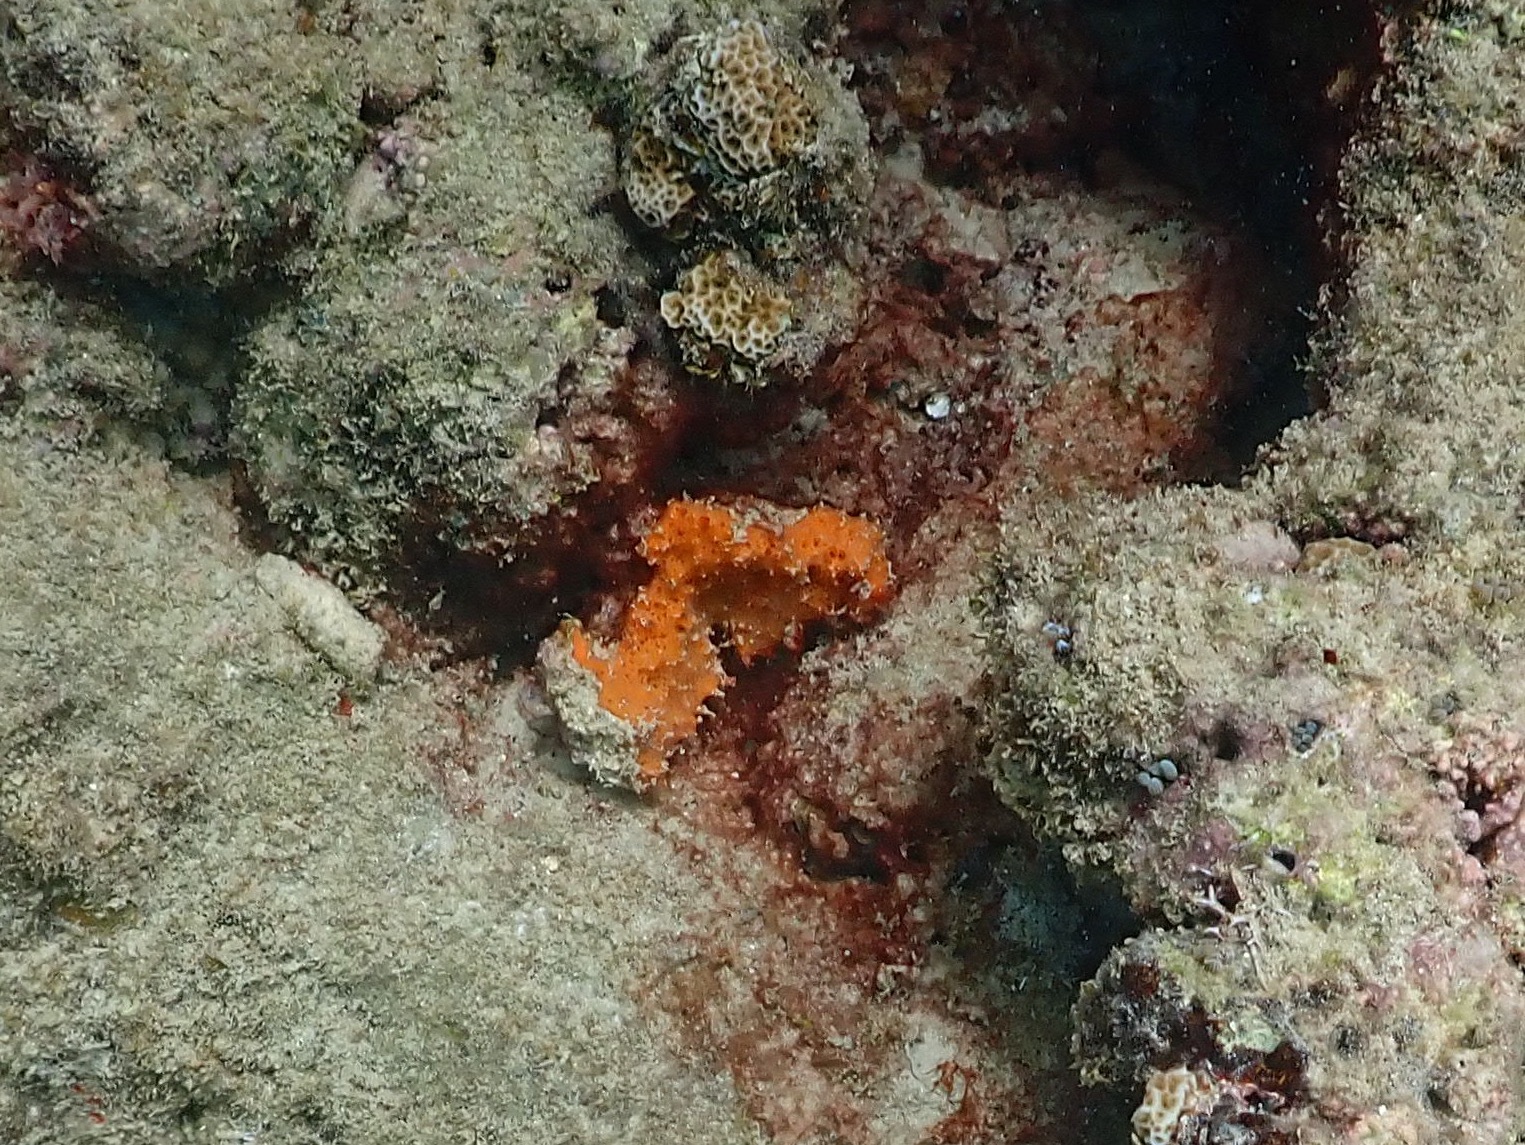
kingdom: Animalia
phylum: Porifera
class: Demospongiae
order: Scopalinida
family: Scopalinidae
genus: Scopalina
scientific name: Scopalina ruetzleri
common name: Orange lumpy encrusting sponge
